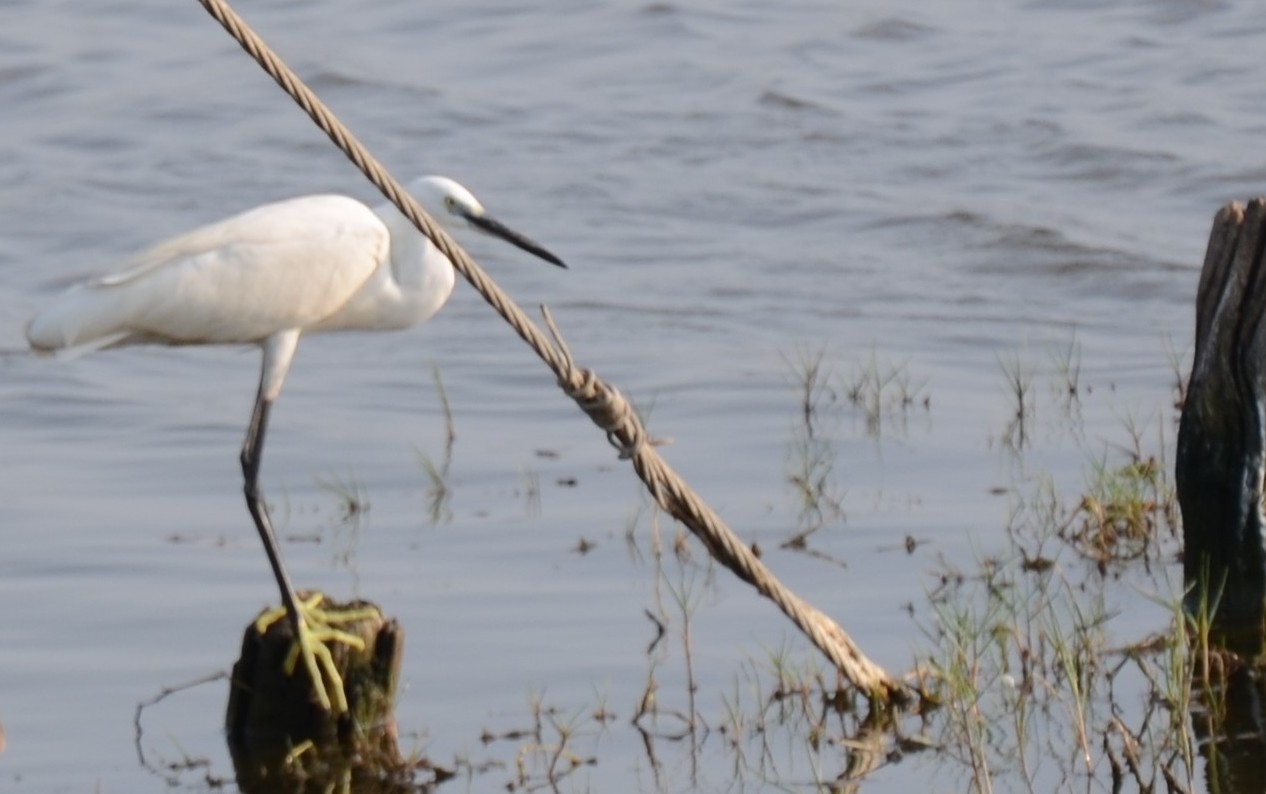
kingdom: Animalia
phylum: Chordata
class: Aves
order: Pelecaniformes
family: Ardeidae
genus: Egretta
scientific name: Egretta garzetta
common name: Little egret
